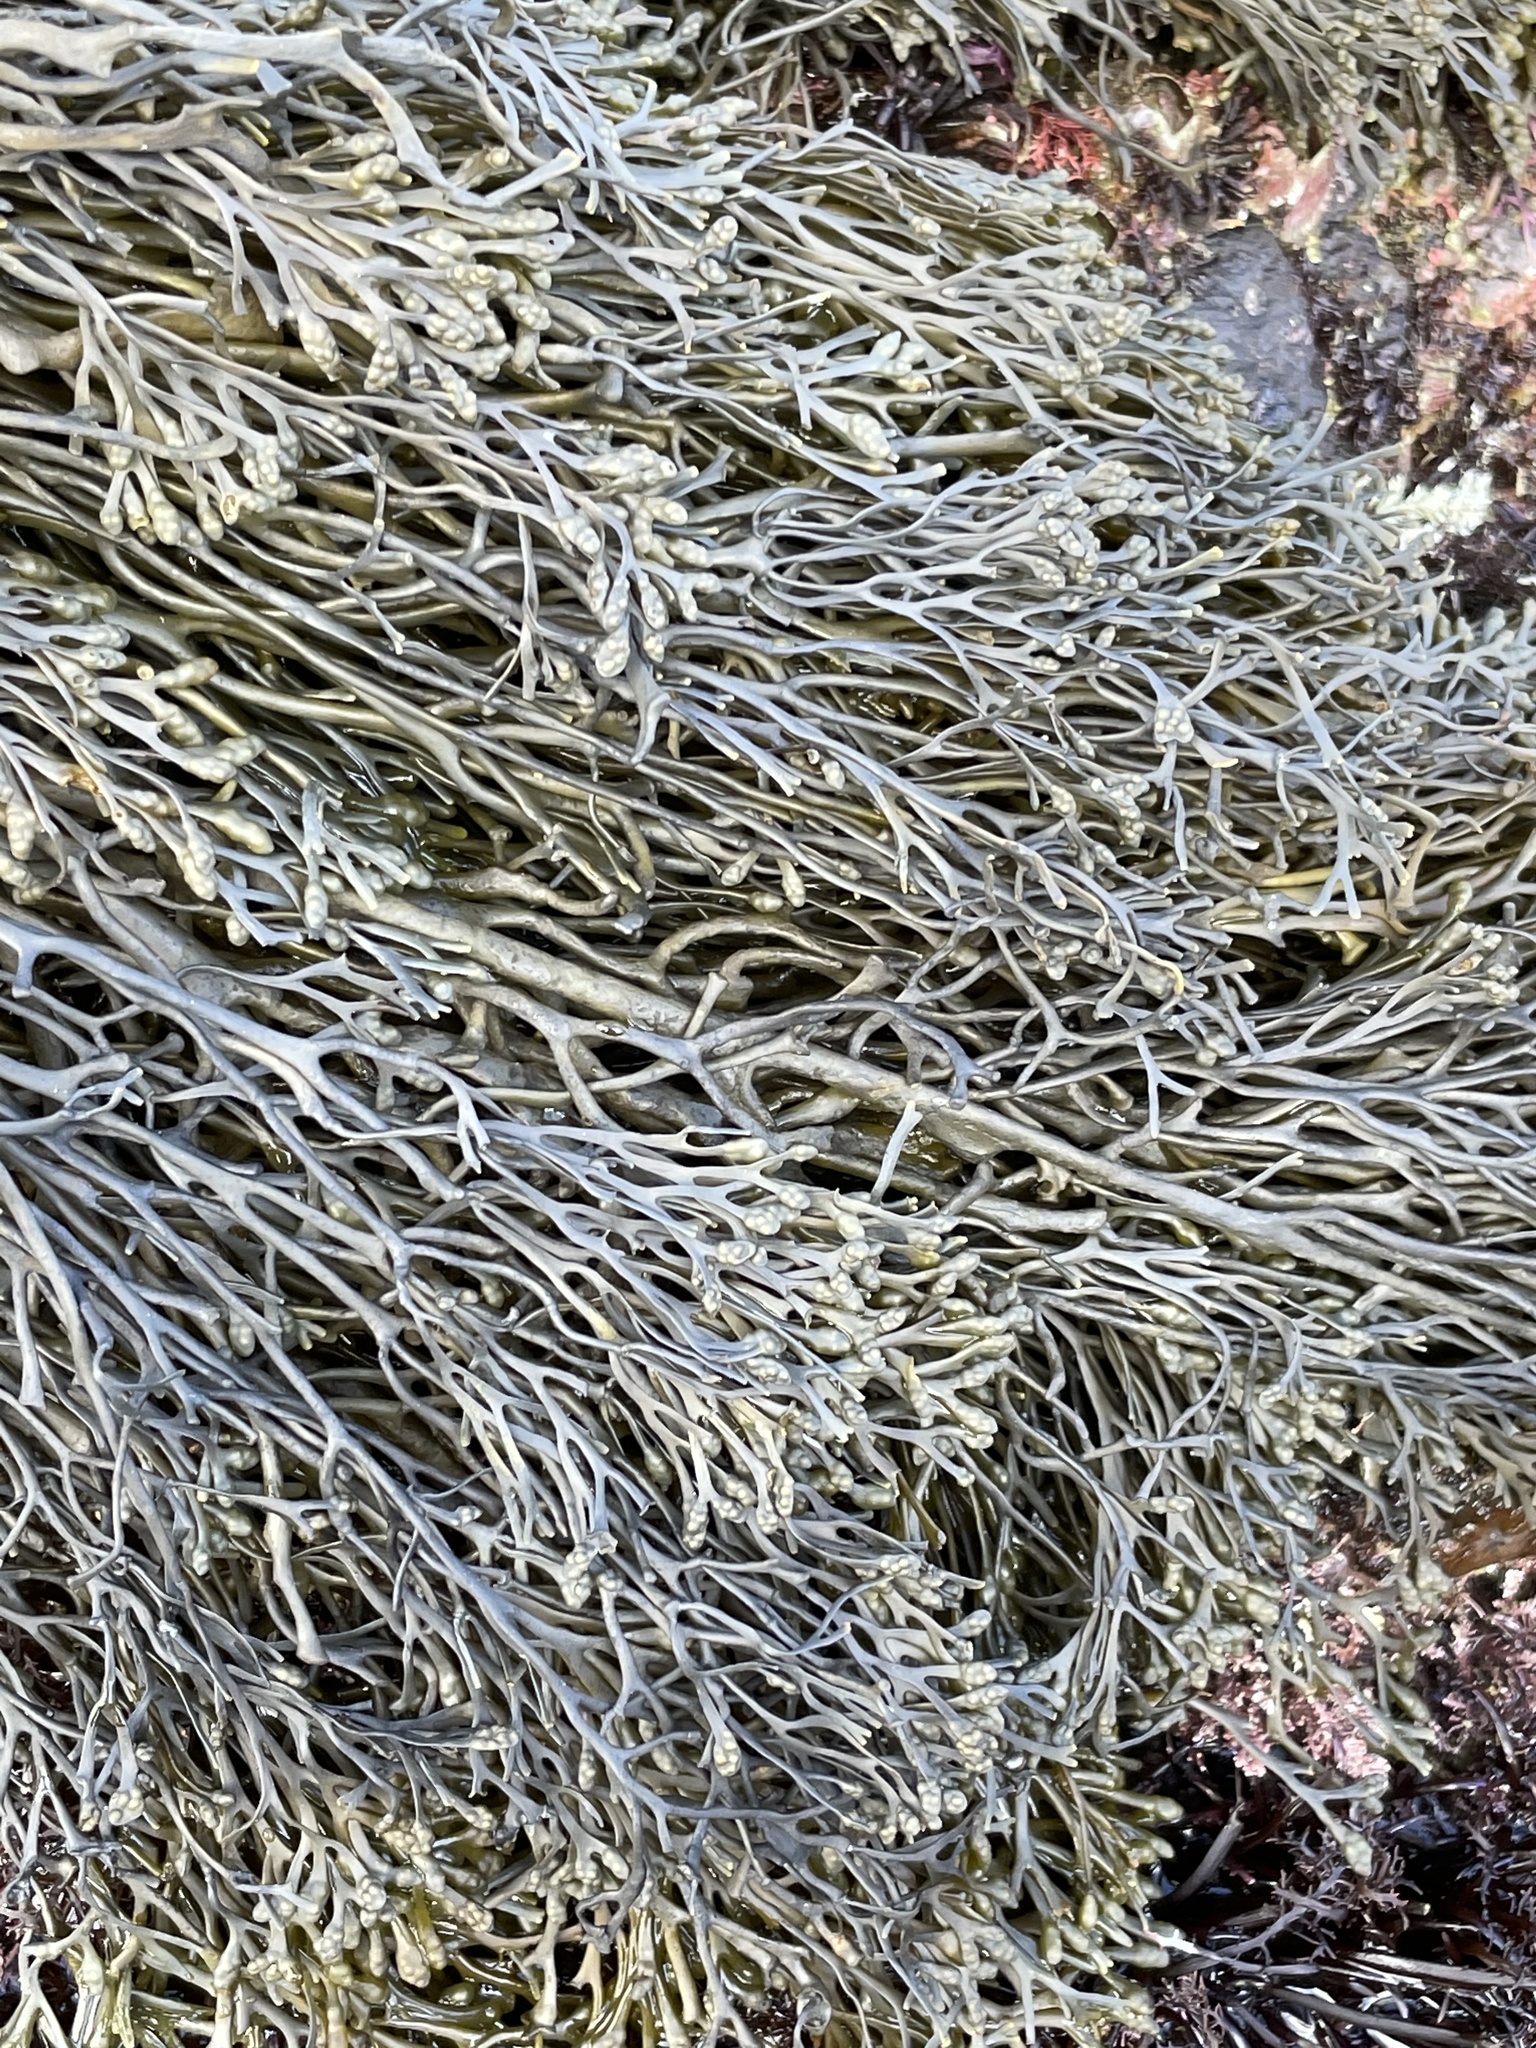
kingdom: Chromista
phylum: Ochrophyta
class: Phaeophyceae
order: Fucales
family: Fucaceae
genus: Silvetia
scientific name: Silvetia
